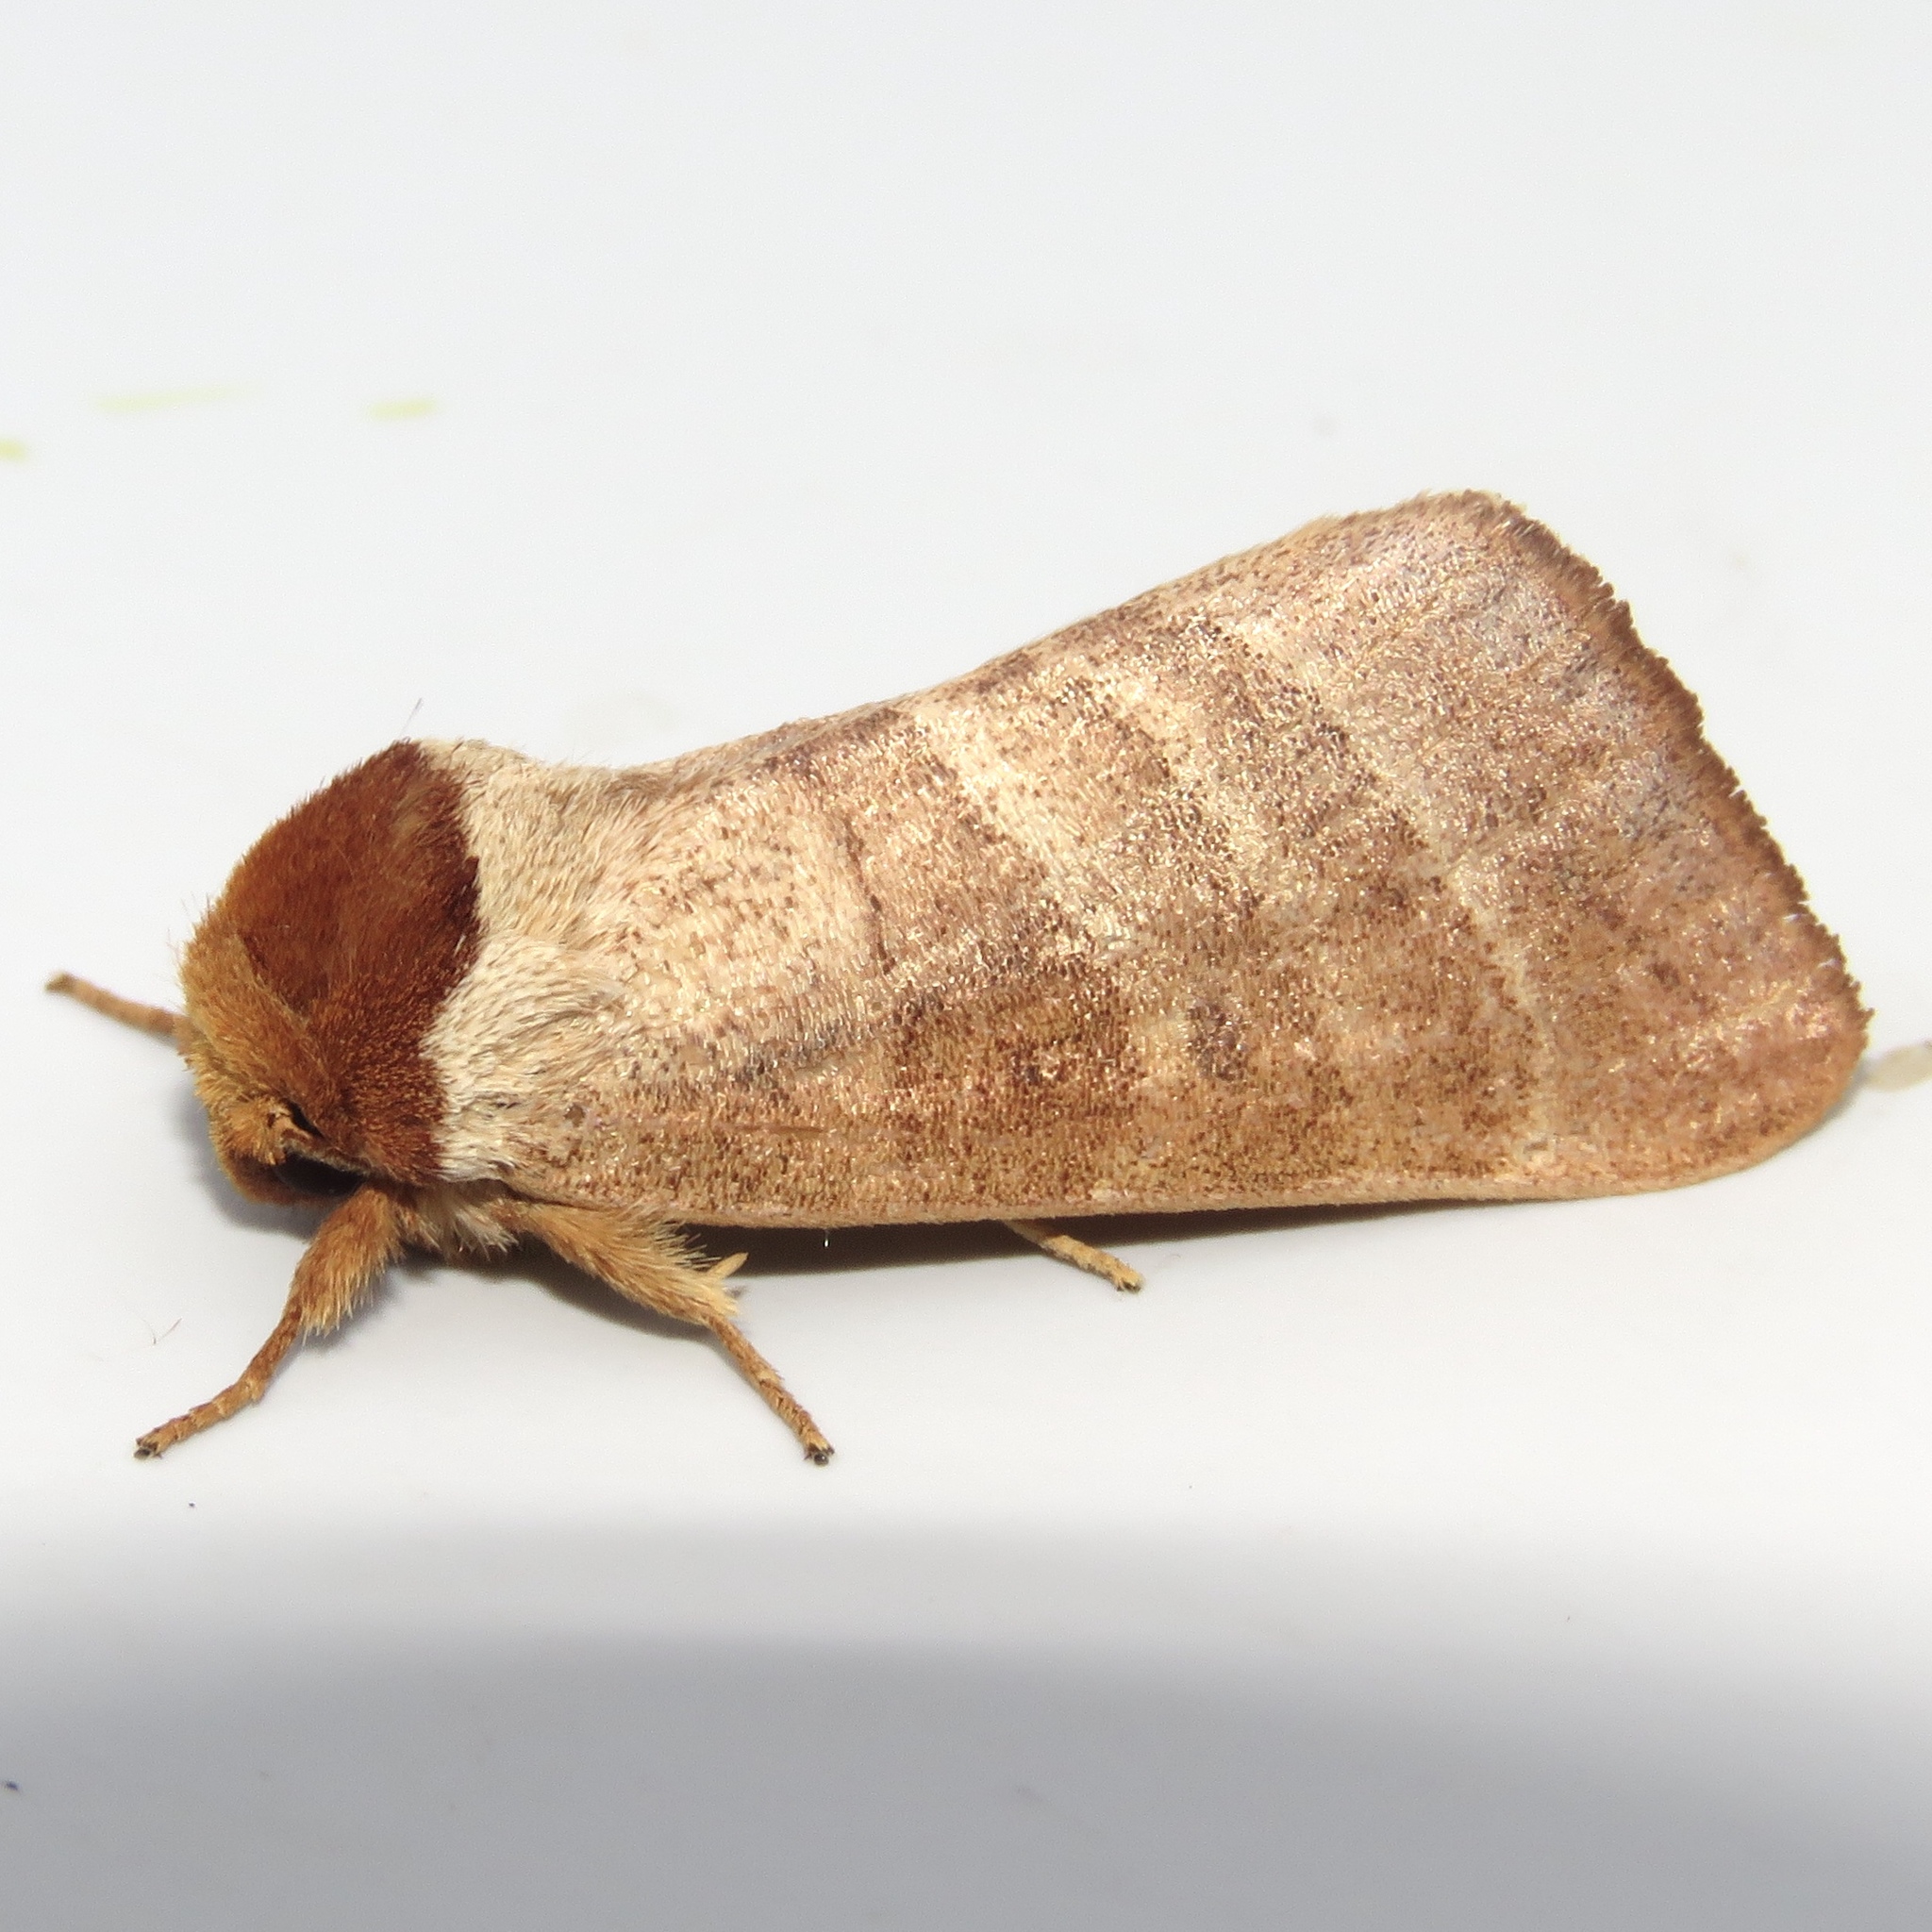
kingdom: Animalia
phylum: Arthropoda
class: Insecta
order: Lepidoptera
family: Notodontidae
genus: Datana
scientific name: Datana integerrima
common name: Walnut caterpillar
